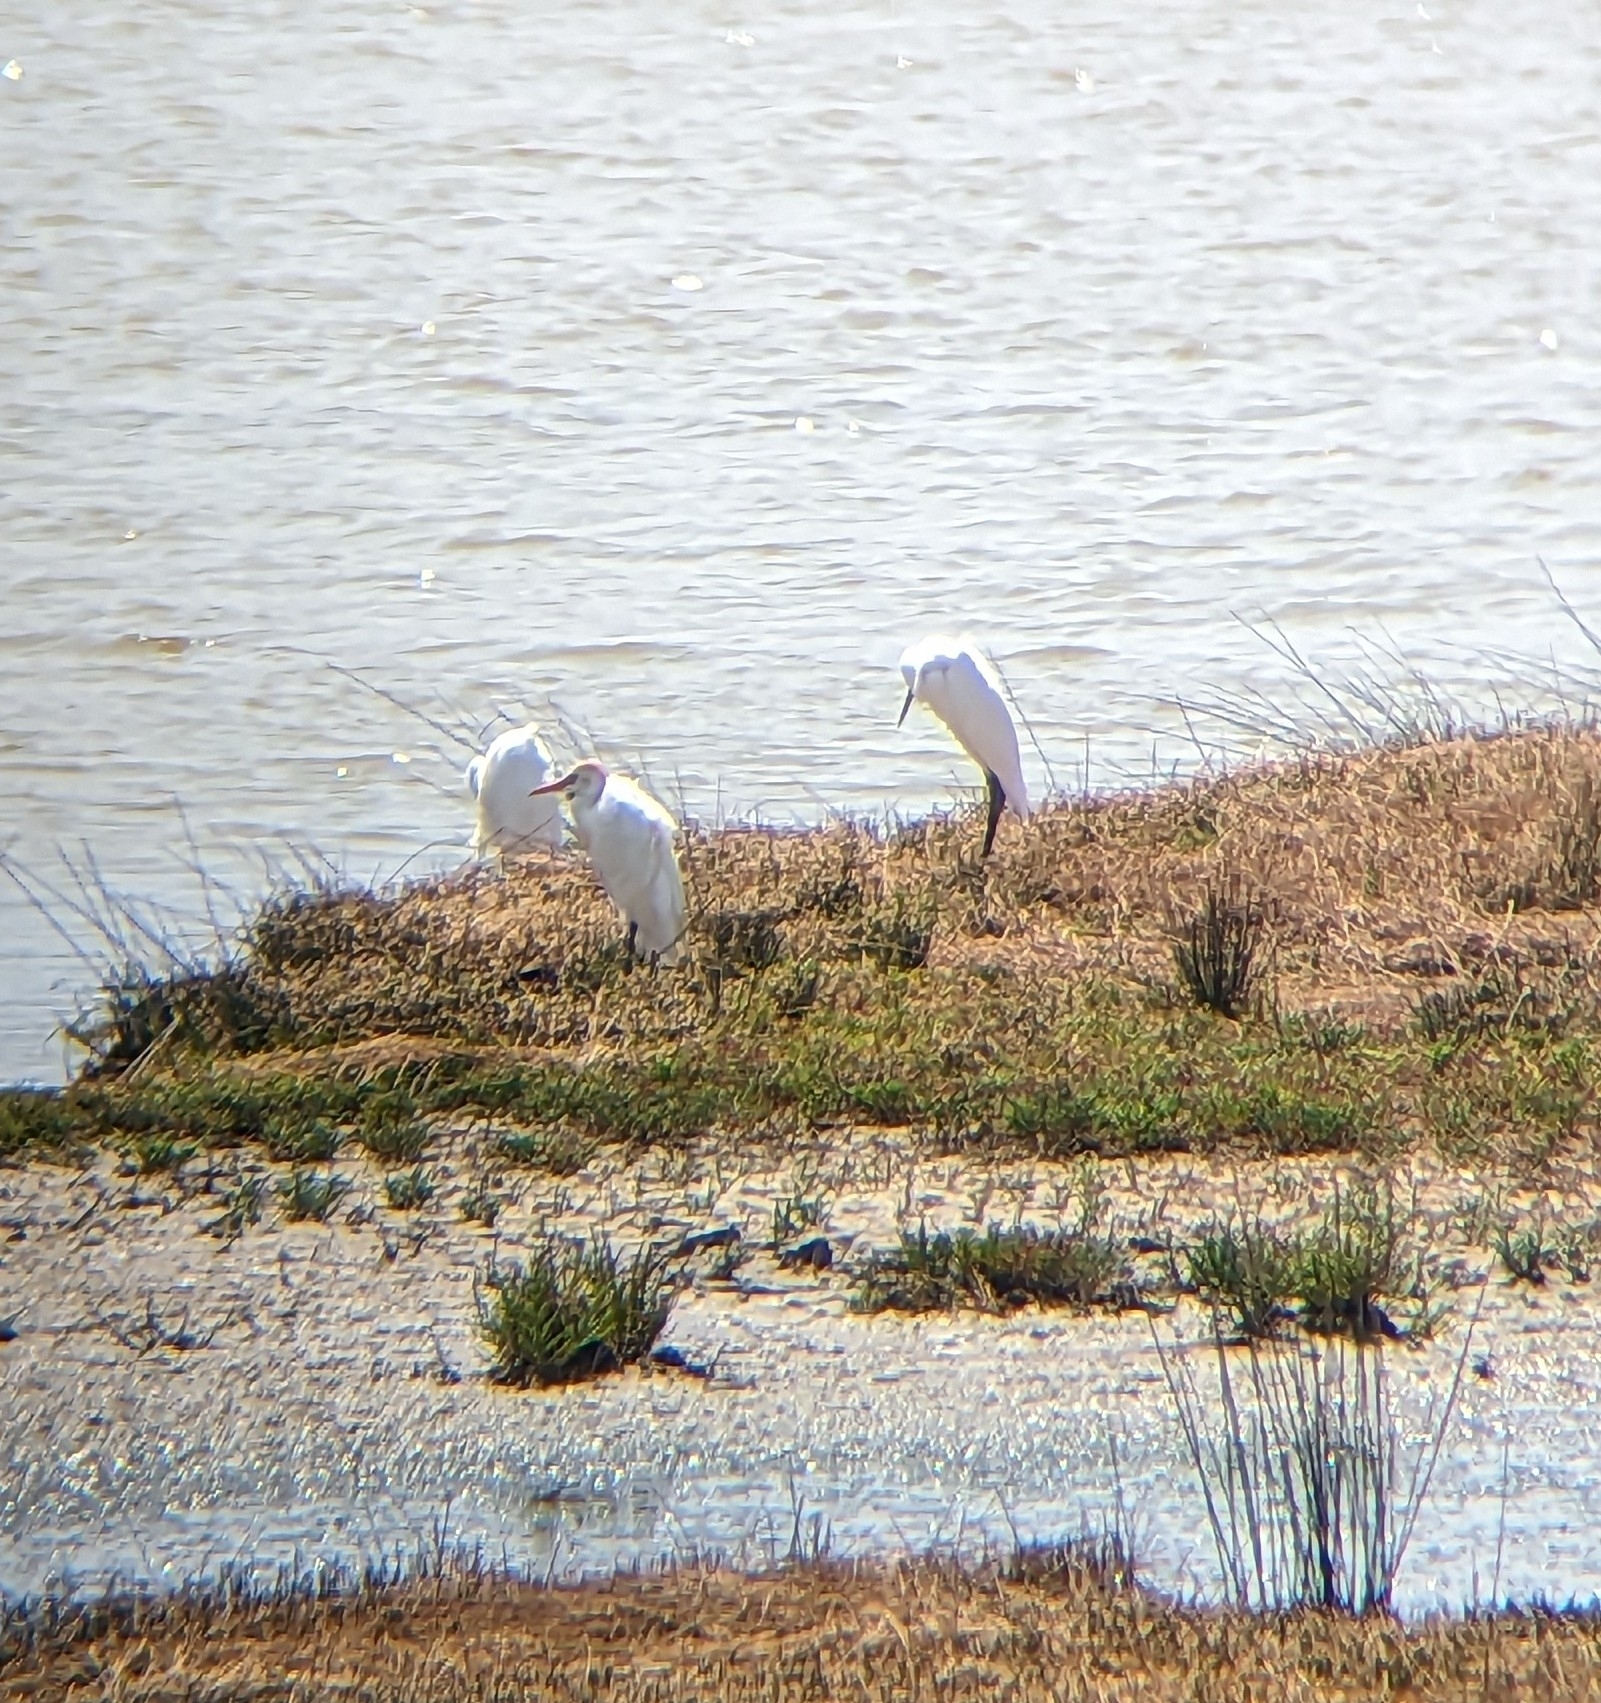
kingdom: Animalia
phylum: Chordata
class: Aves
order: Pelecaniformes
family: Ardeidae
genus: Bubulcus
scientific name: Bubulcus ibis
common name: Cattle egret
